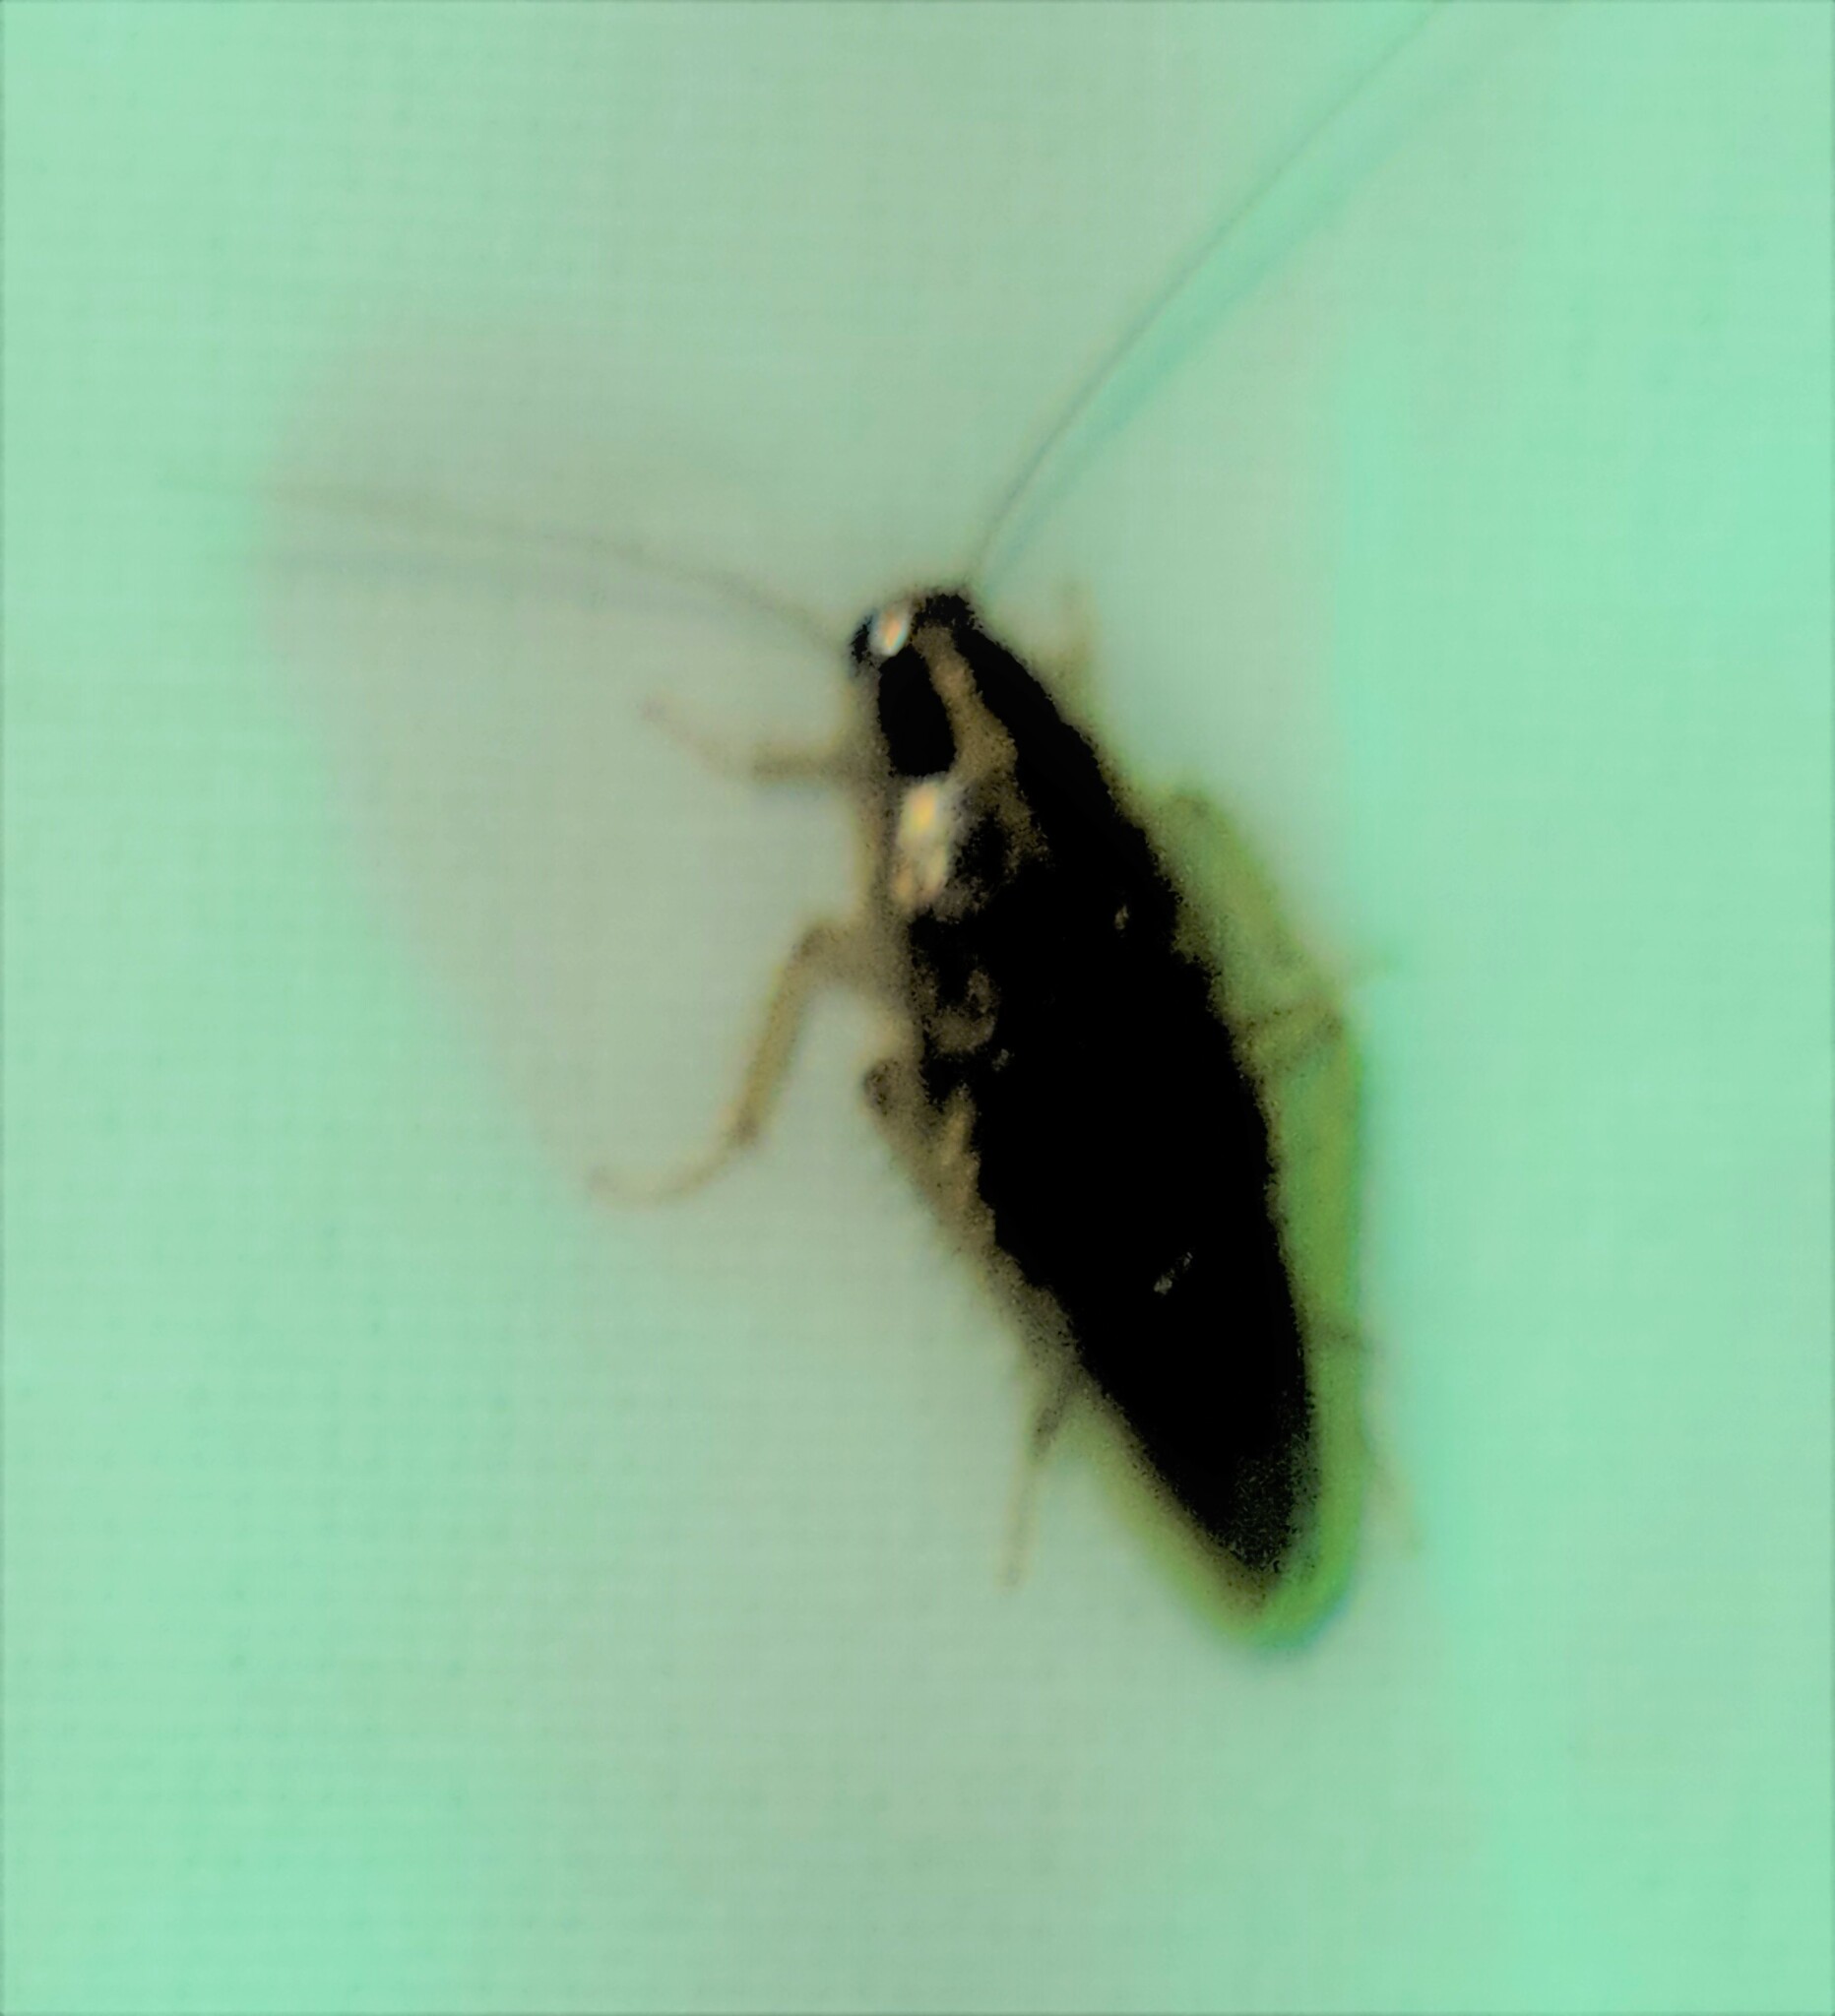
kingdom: Animalia
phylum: Arthropoda
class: Insecta
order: Blattodea
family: Ectobiidae
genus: Blattella
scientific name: Blattella asahinai
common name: Asian cockroach
